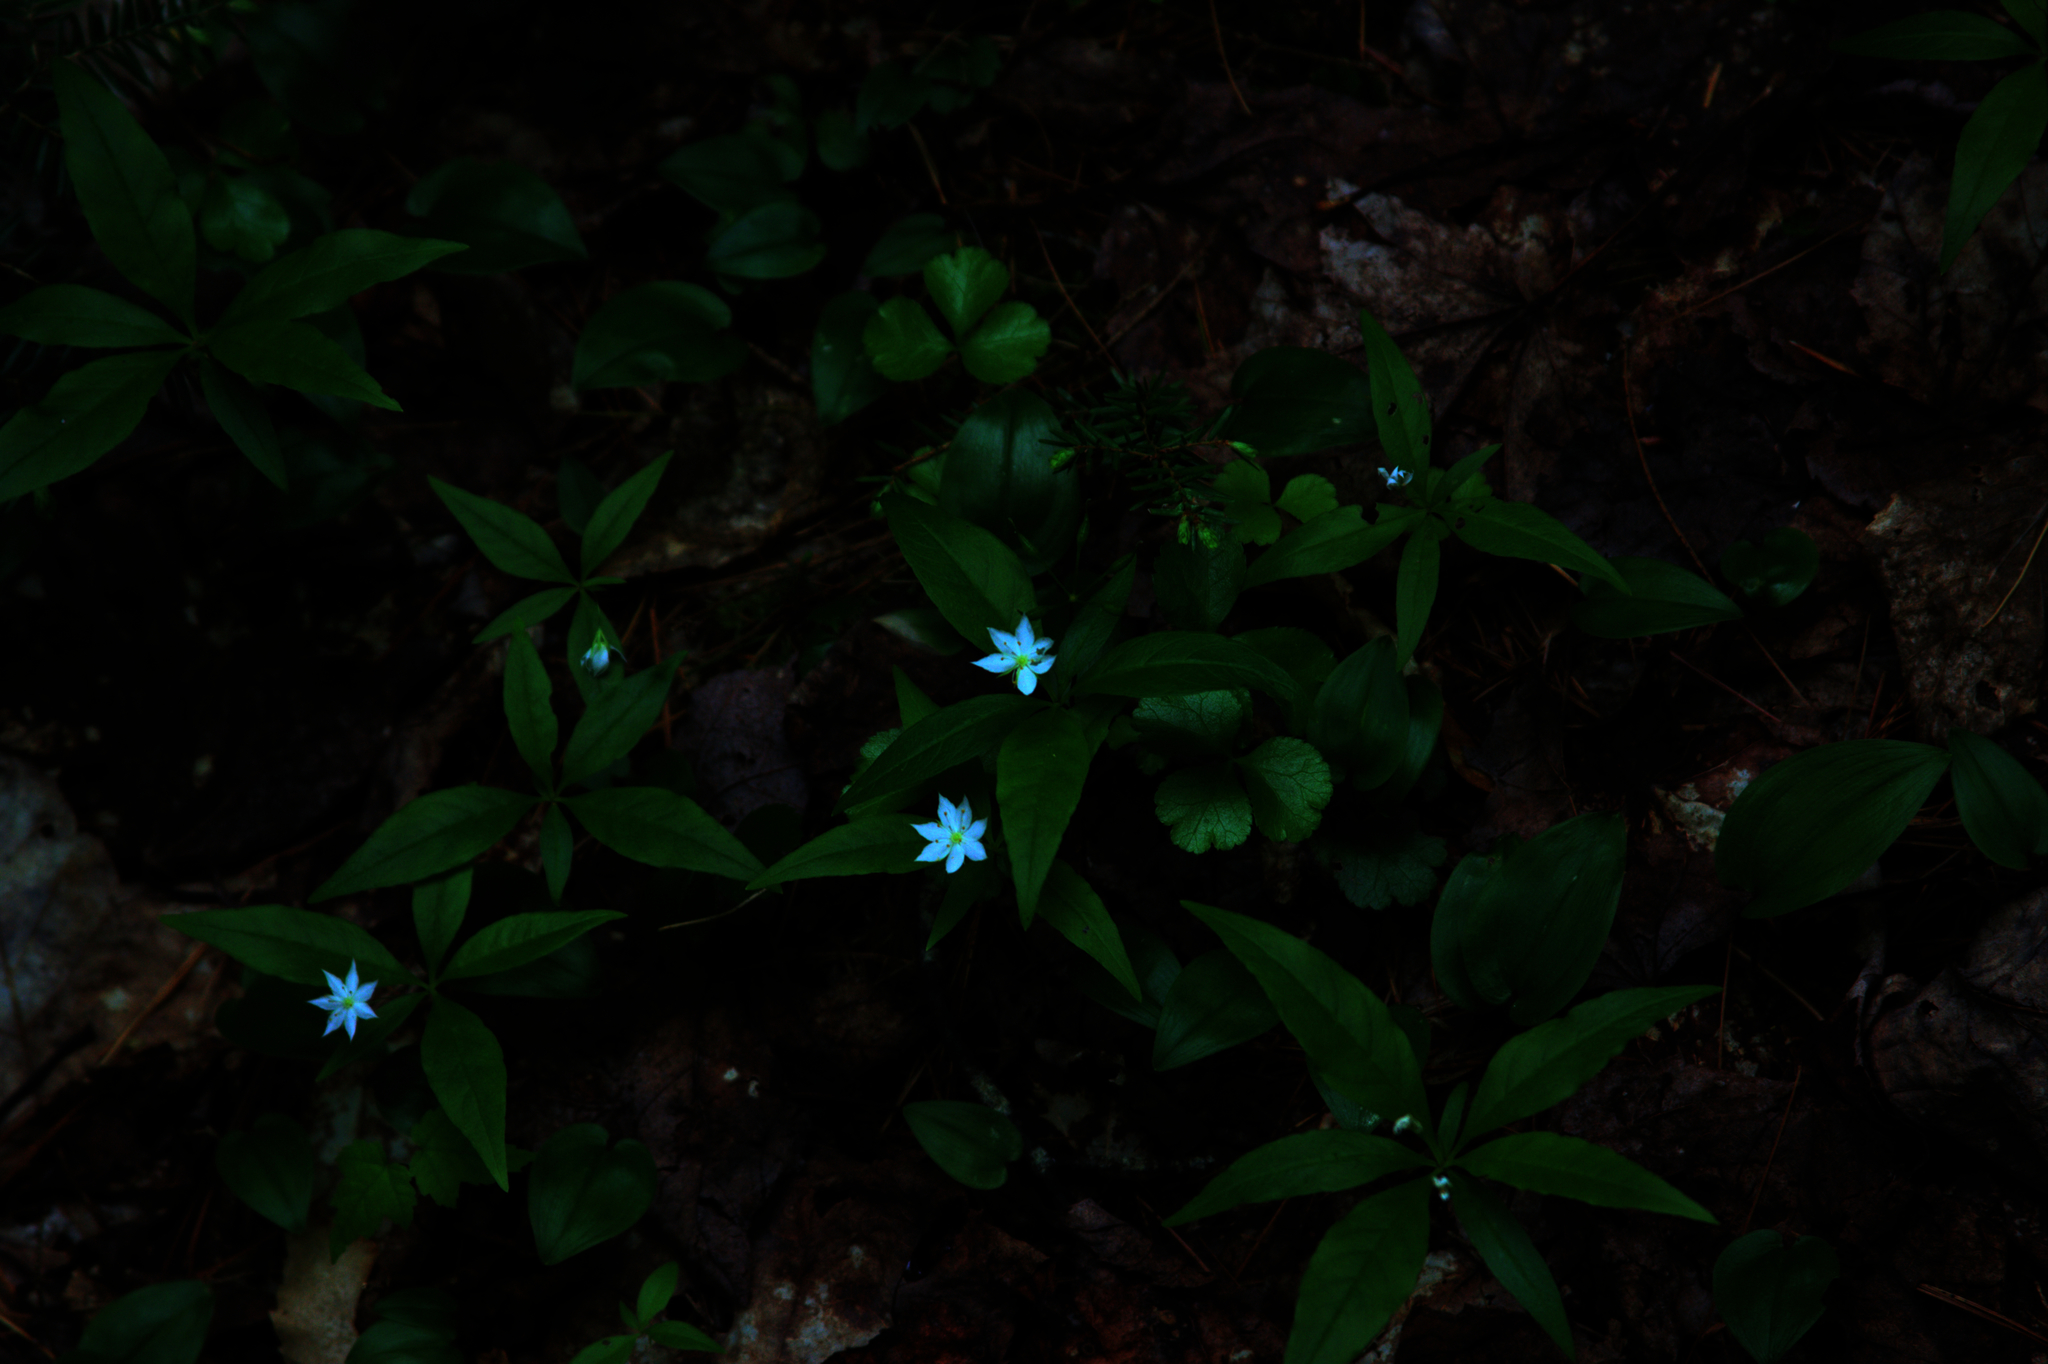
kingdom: Plantae
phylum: Tracheophyta
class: Magnoliopsida
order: Ericales
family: Primulaceae
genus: Lysimachia
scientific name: Lysimachia borealis
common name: American starflower
